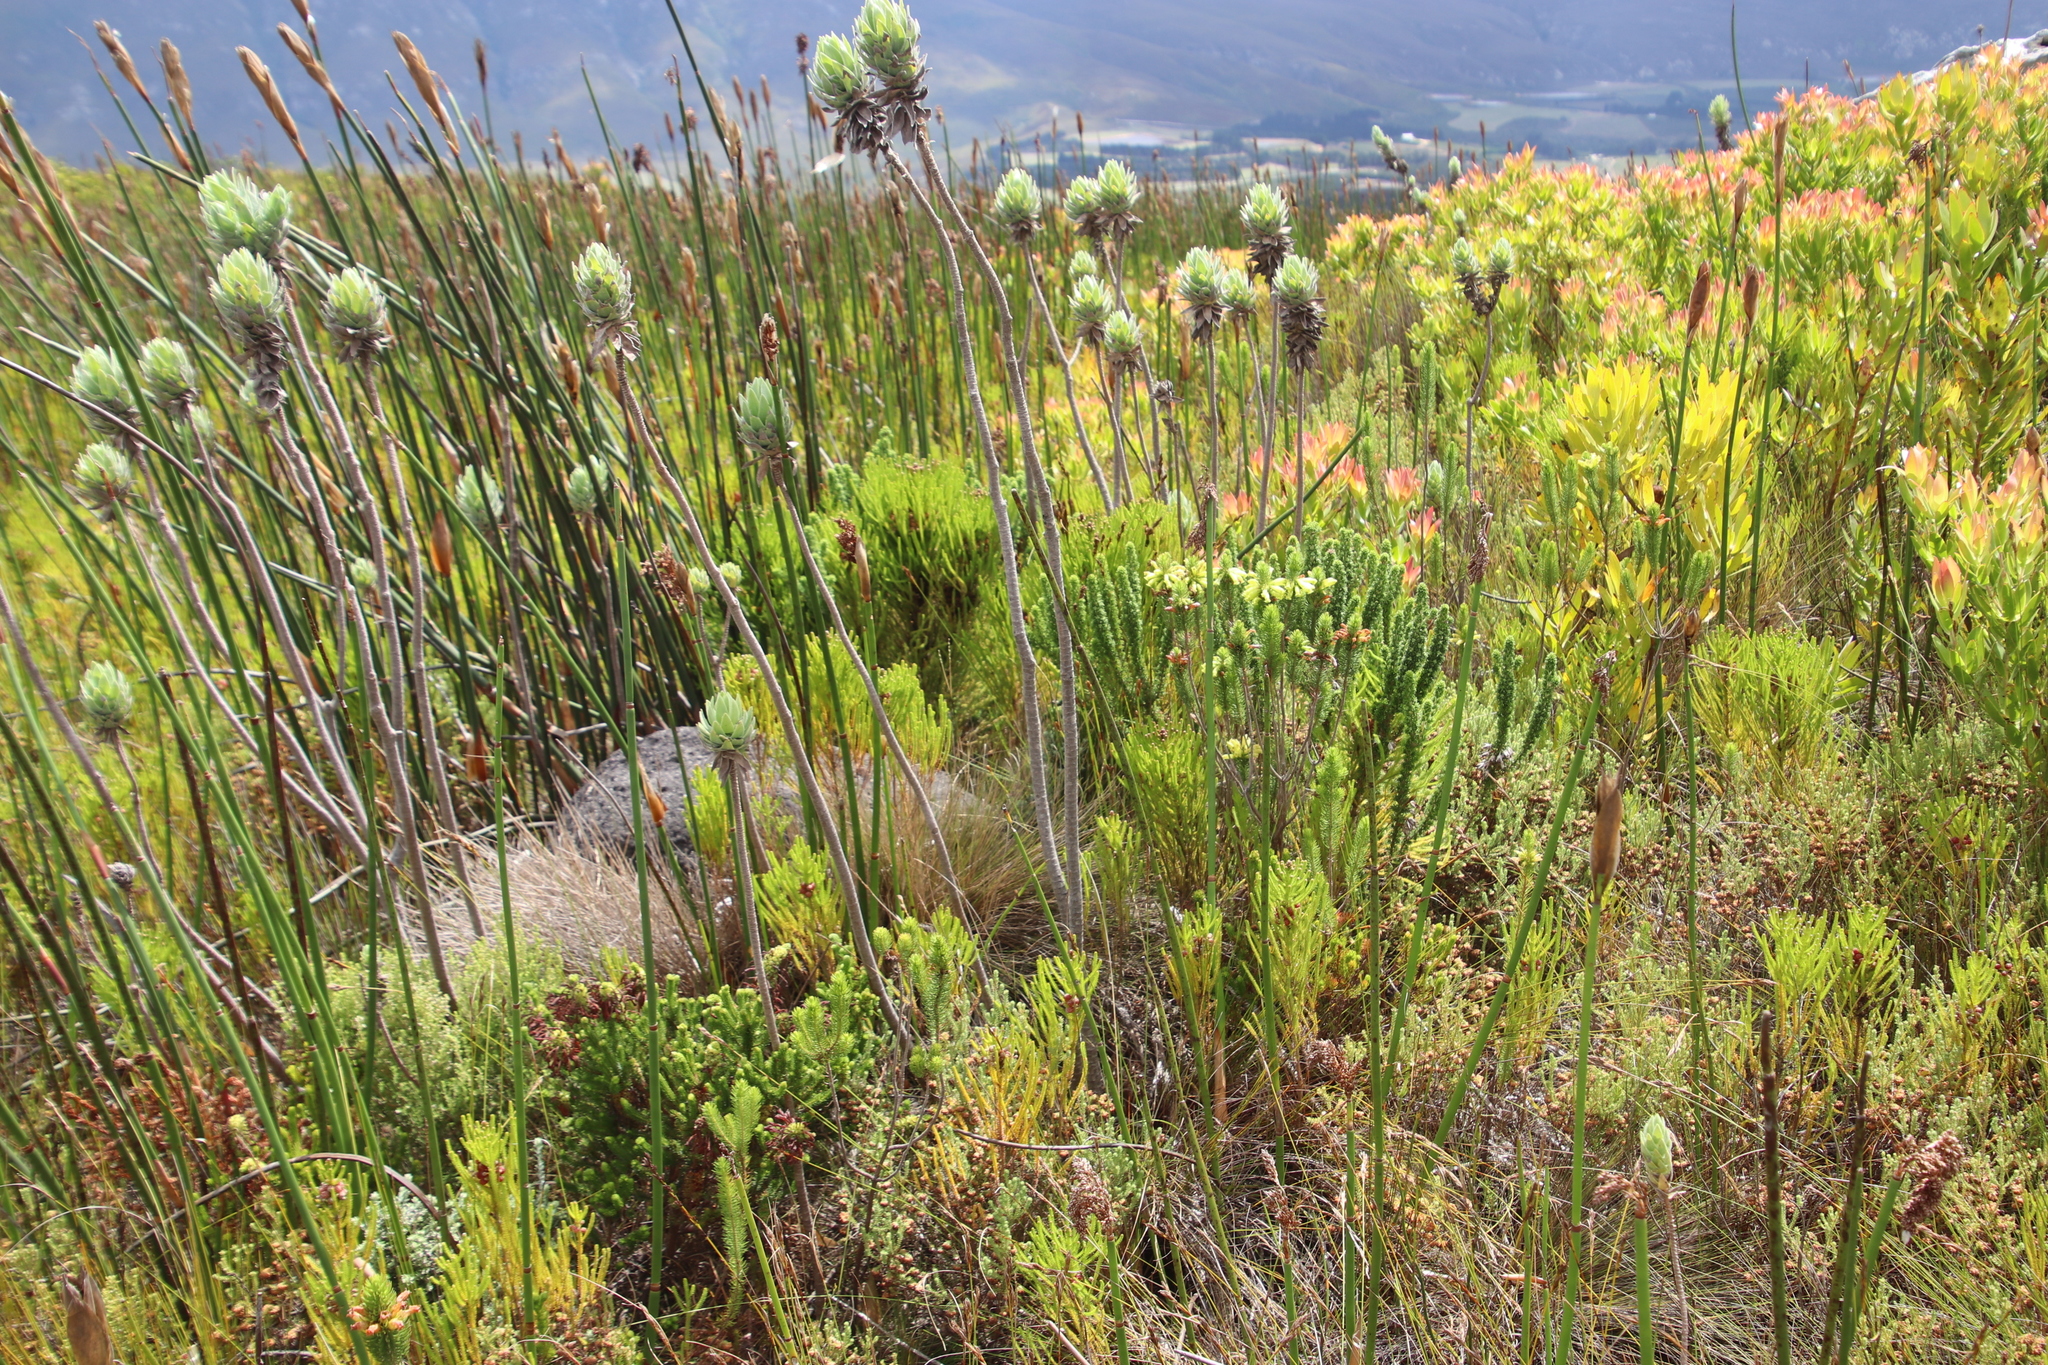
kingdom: Plantae
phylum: Tracheophyta
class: Magnoliopsida
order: Ericales
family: Ericaceae
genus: Erica
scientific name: Erica viscaria
